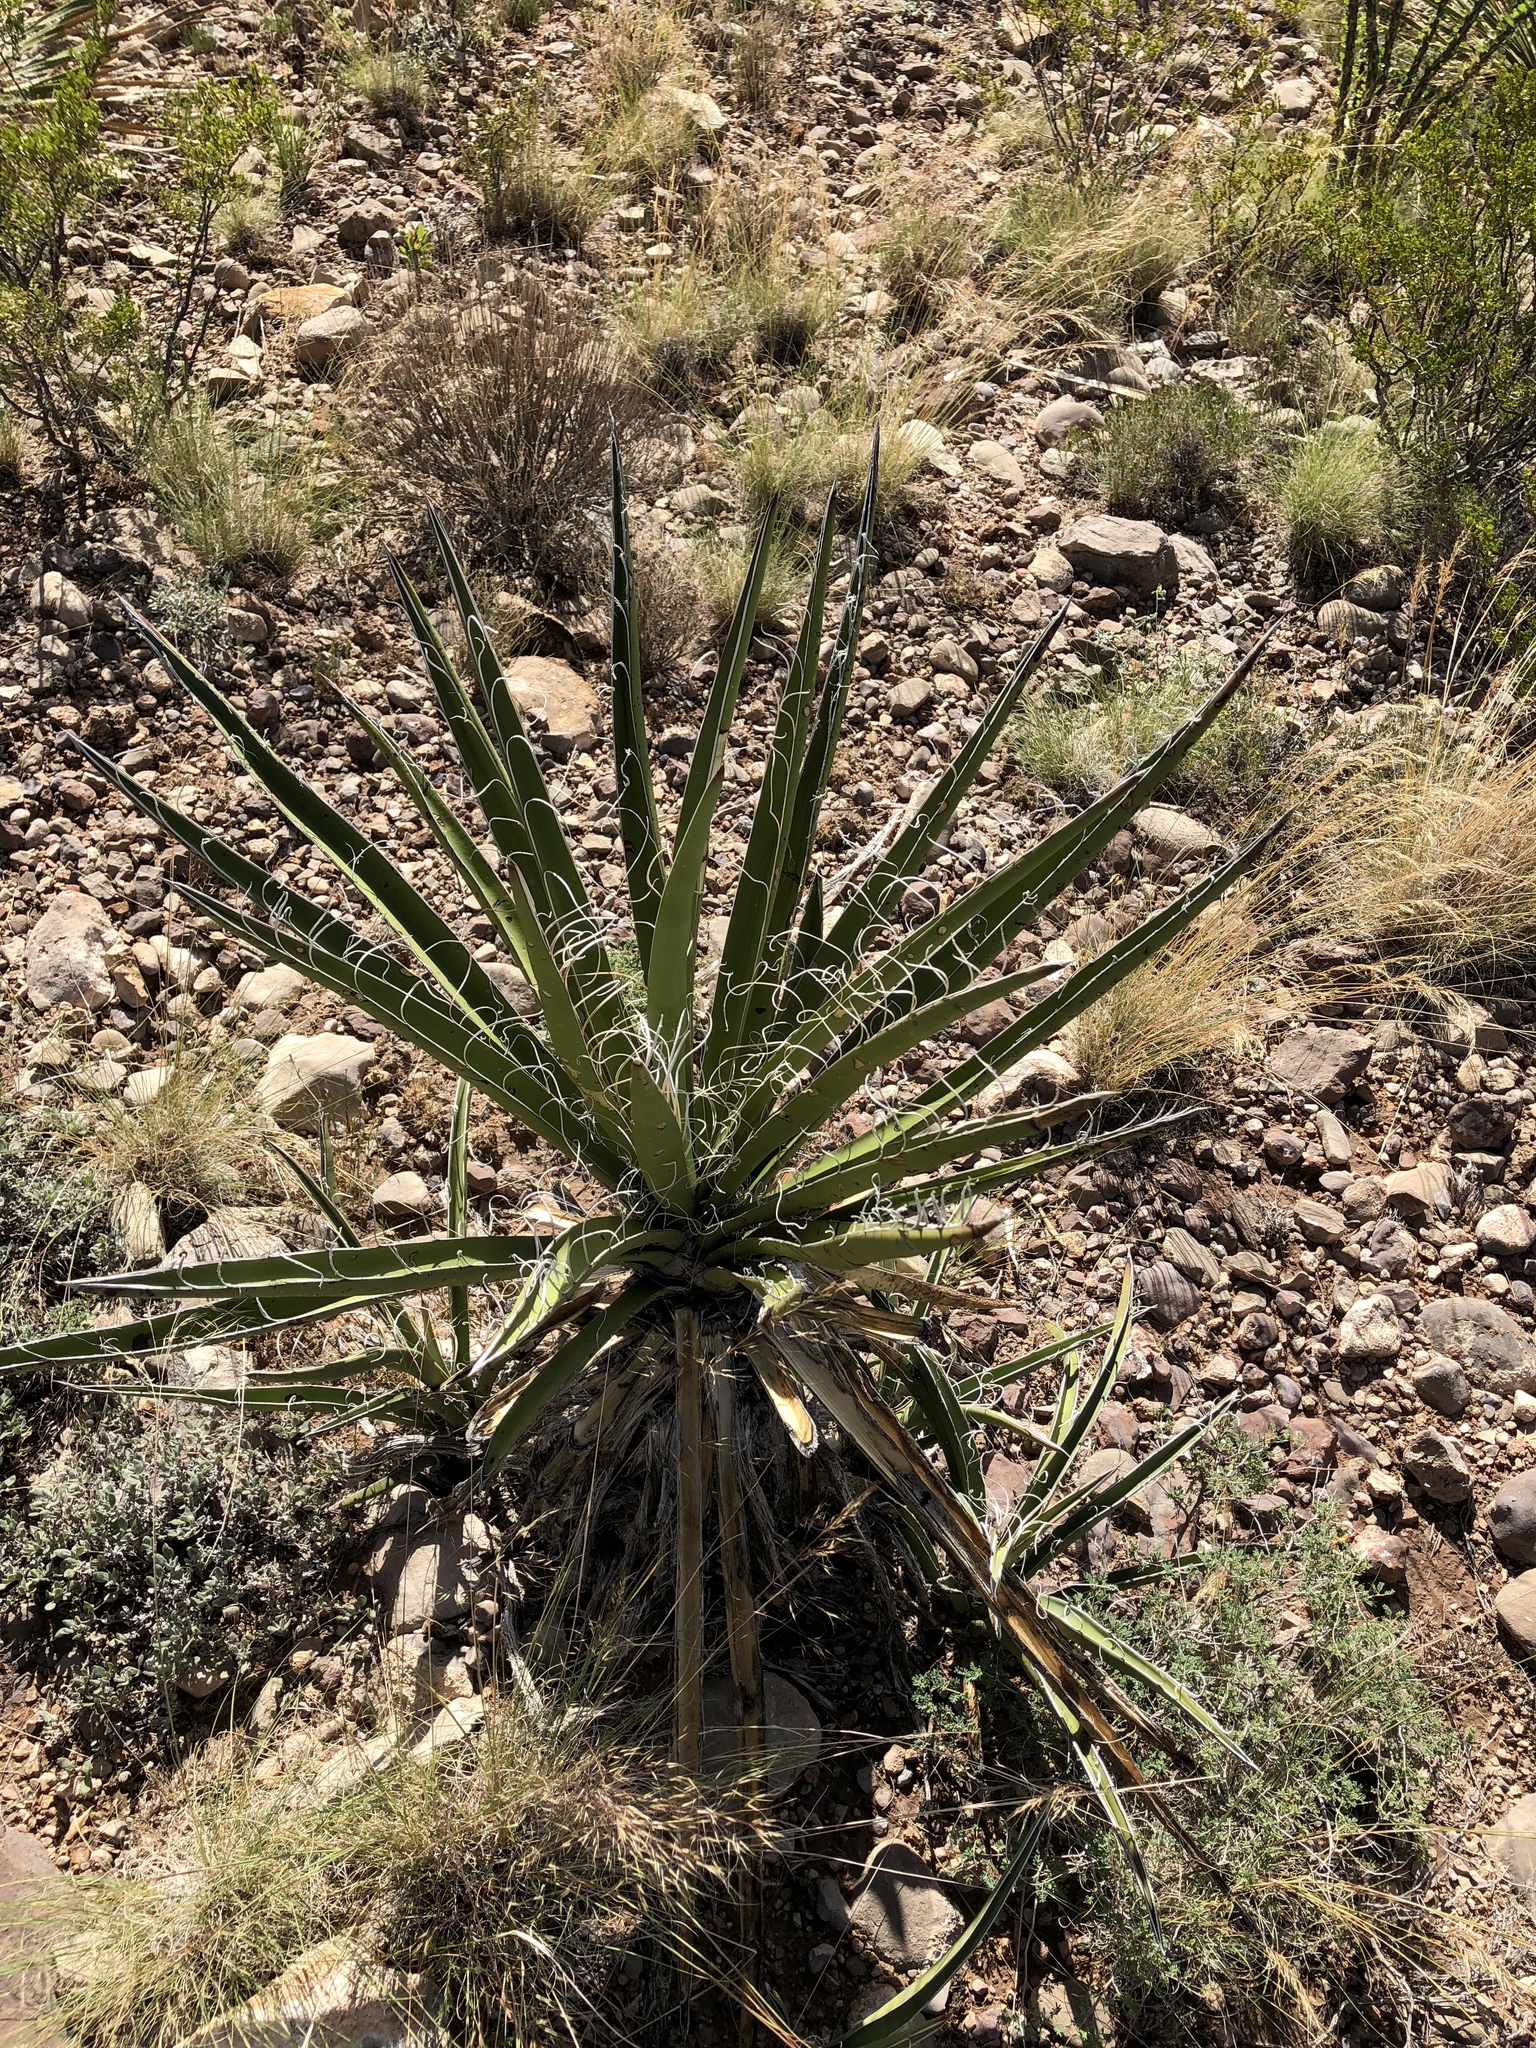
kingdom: Plantae
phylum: Tracheophyta
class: Liliopsida
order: Asparagales
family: Asparagaceae
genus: Yucca
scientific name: Yucca baccata
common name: Banana yucca
